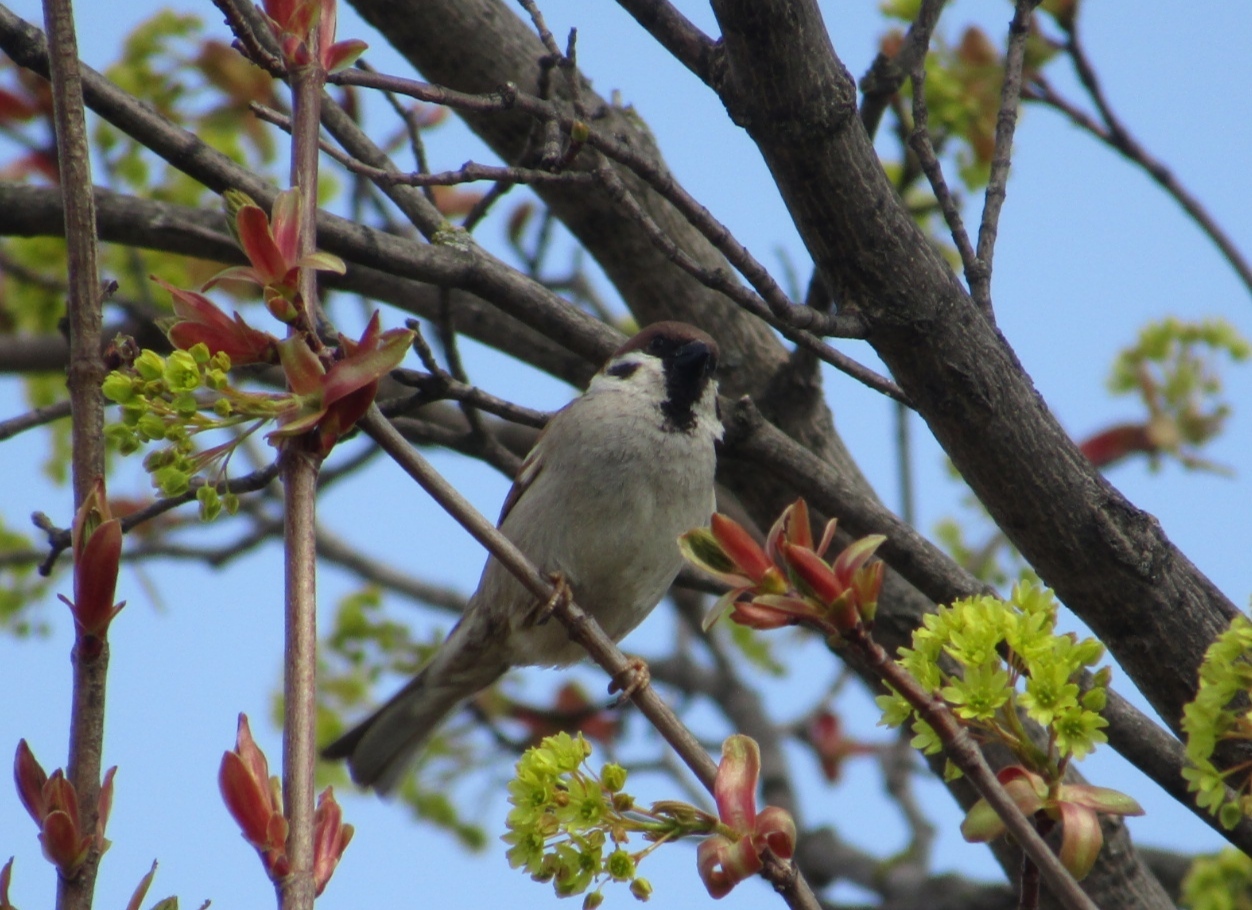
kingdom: Animalia
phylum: Chordata
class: Aves
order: Passeriformes
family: Passeridae
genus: Passer
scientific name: Passer montanus
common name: Eurasian tree sparrow
